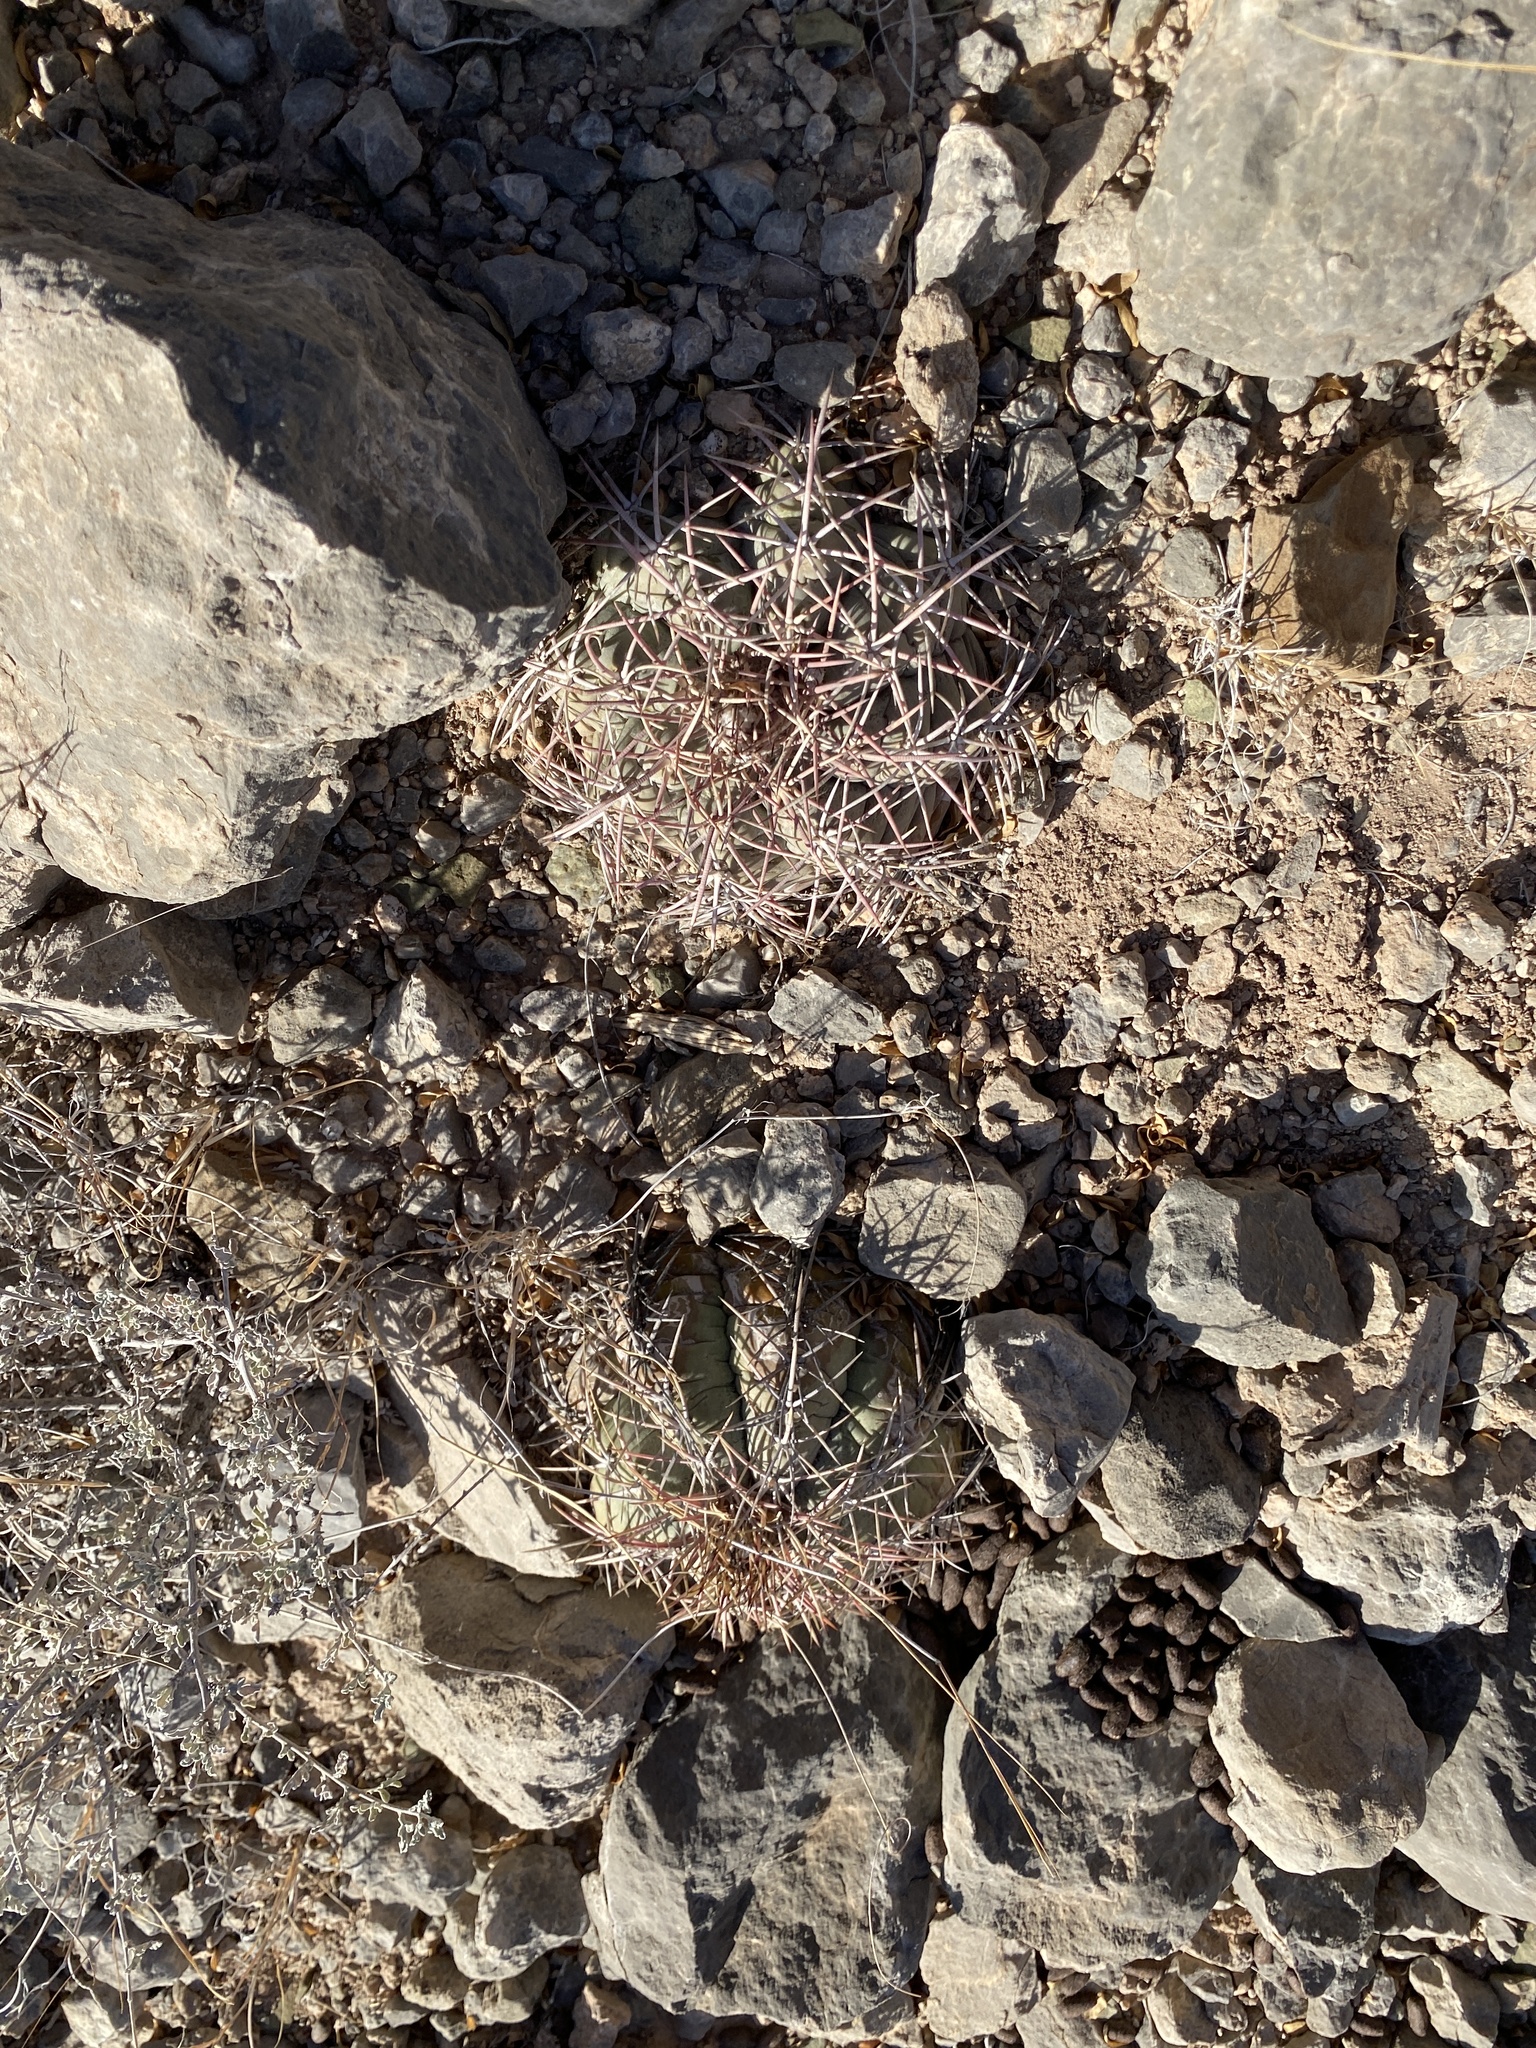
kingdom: Plantae
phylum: Tracheophyta
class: Magnoliopsida
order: Caryophyllales
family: Cactaceae
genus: Echinocactus
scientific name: Echinocactus horizonthalonius
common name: Devilshead
